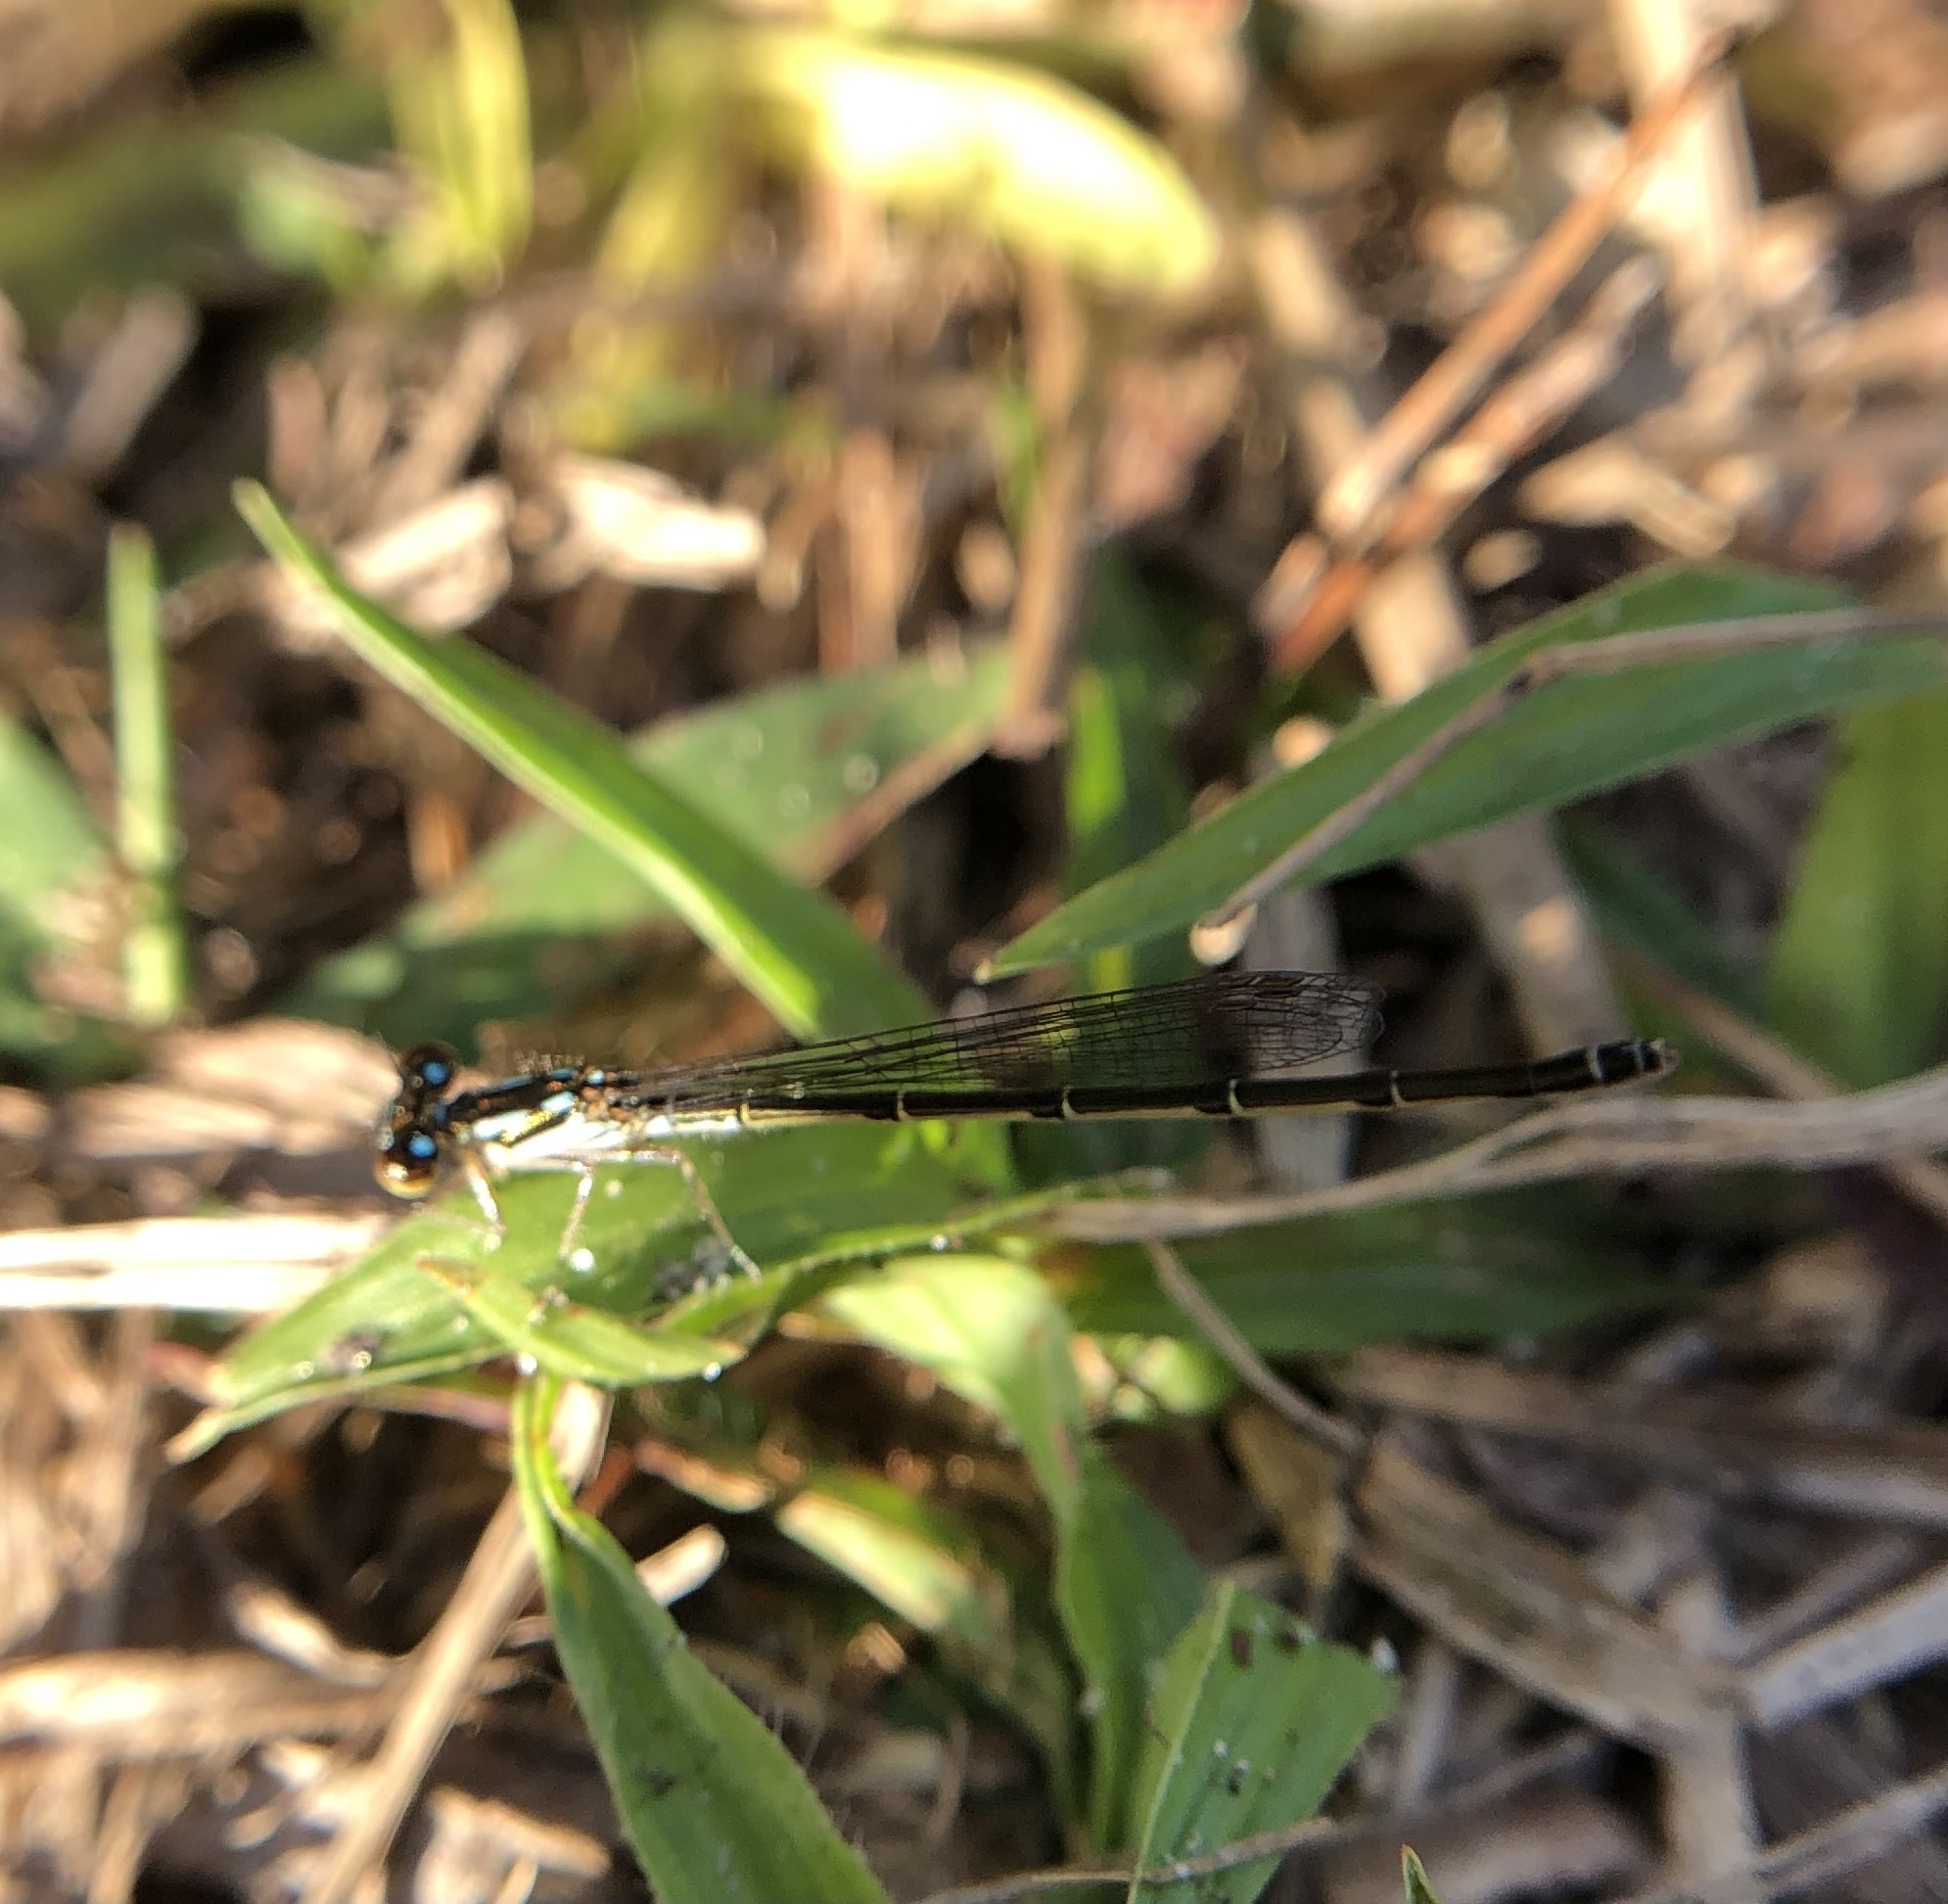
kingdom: Animalia
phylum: Arthropoda
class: Insecta
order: Odonata
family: Coenagrionidae
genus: Ischnura
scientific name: Ischnura posita
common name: Fragile forktail
